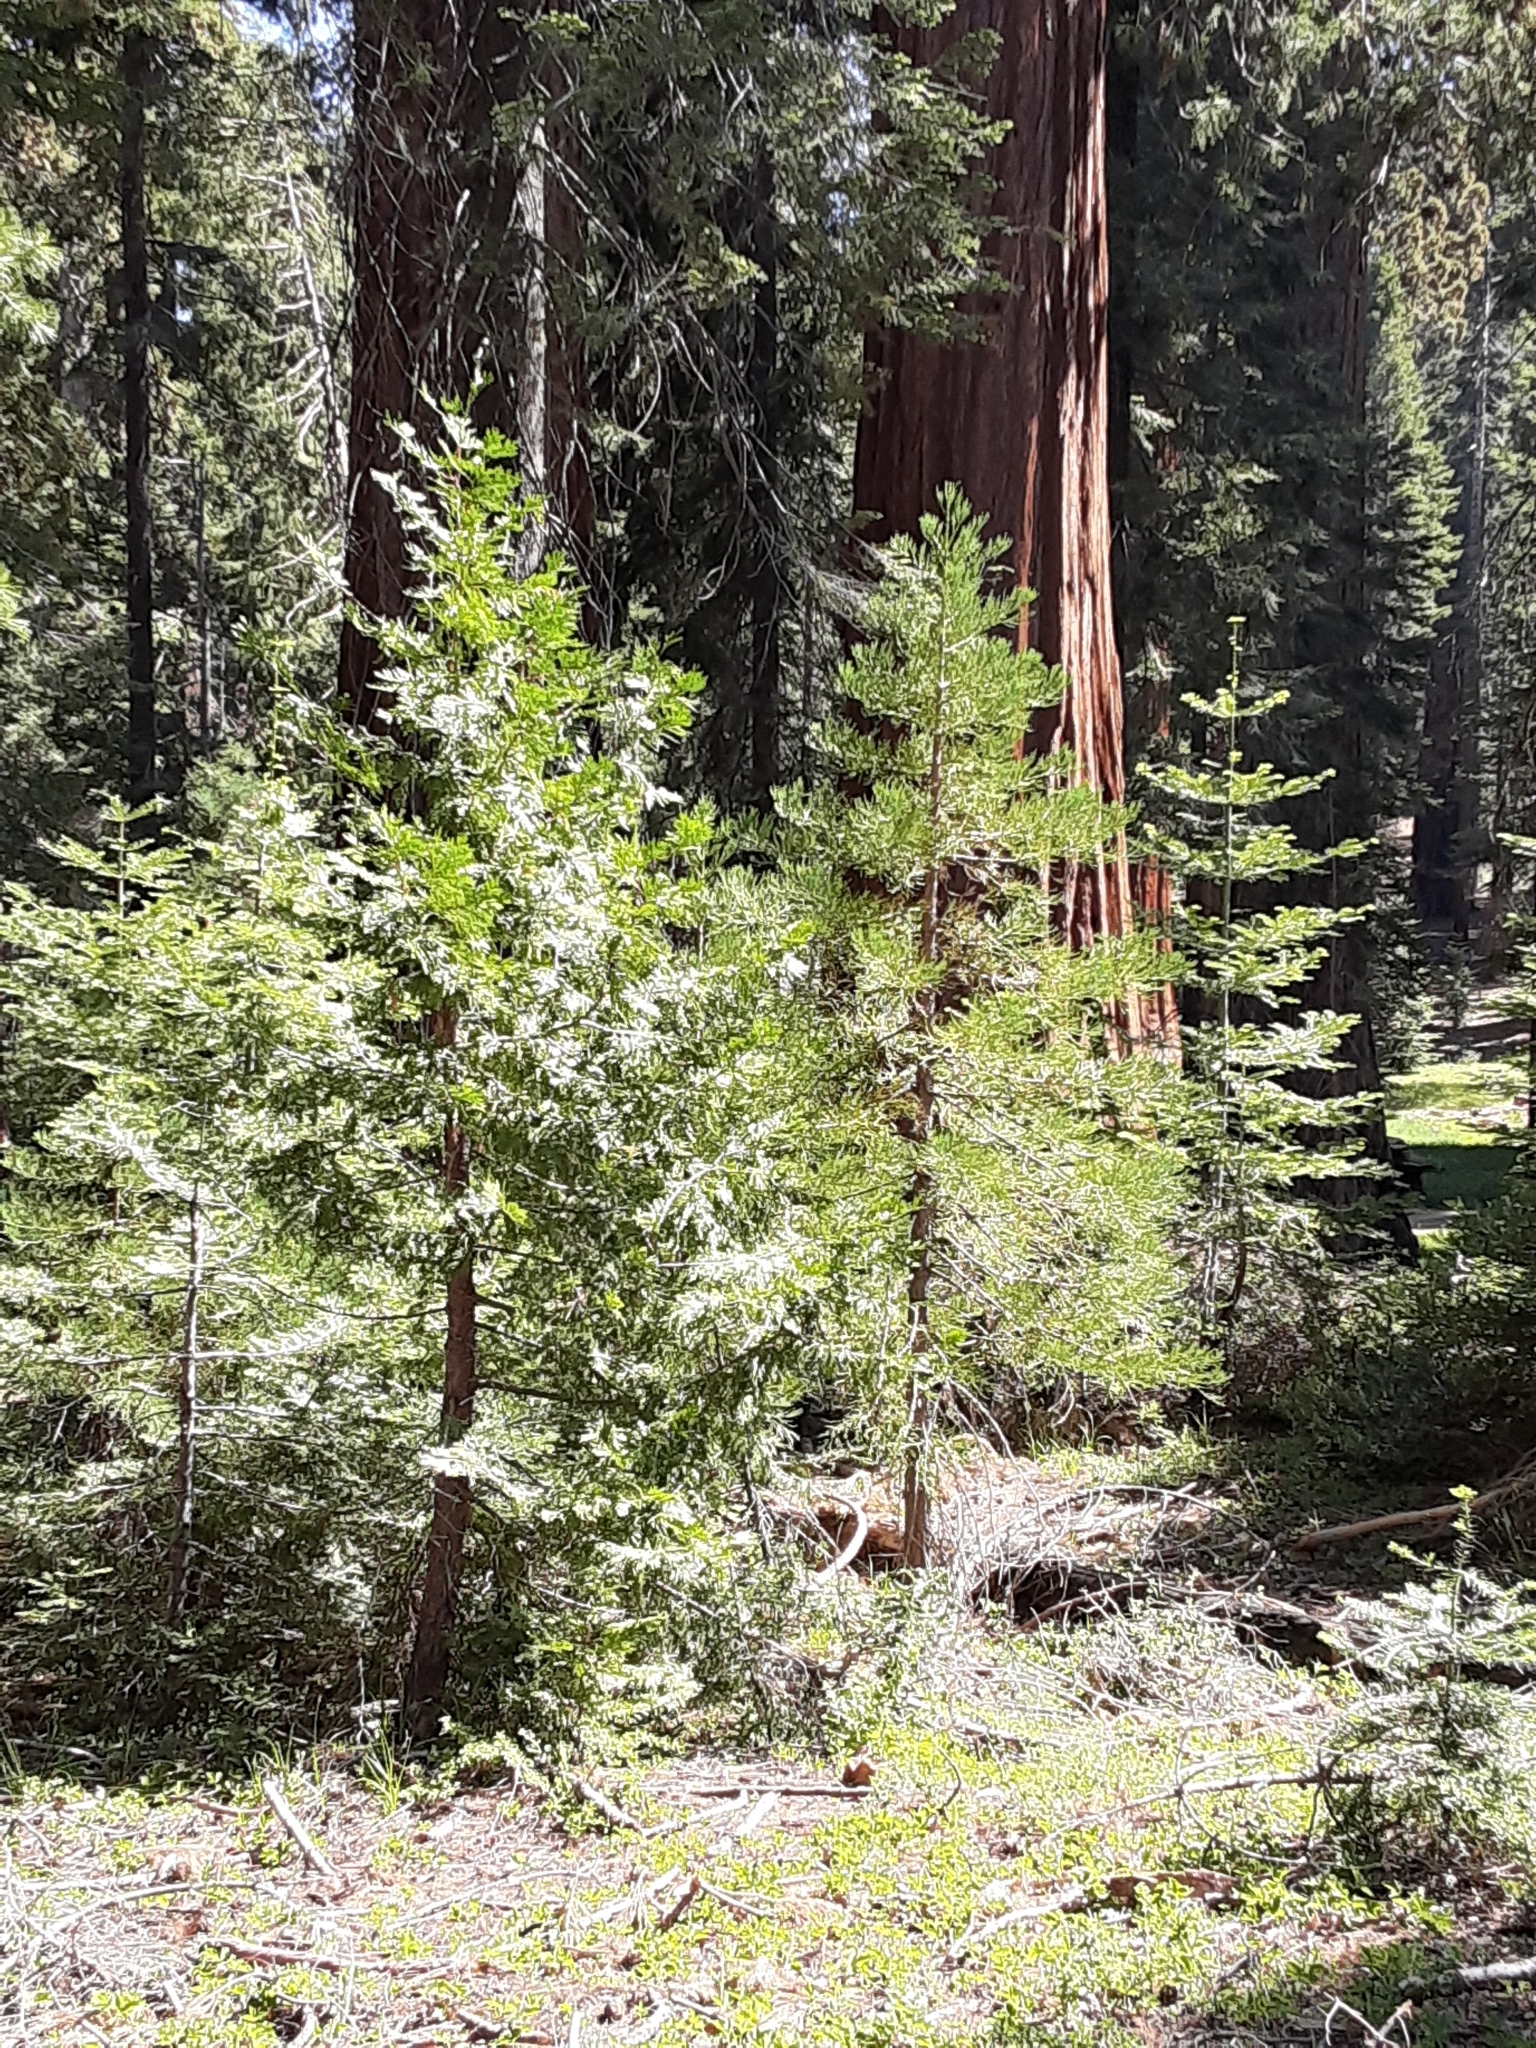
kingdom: Plantae
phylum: Tracheophyta
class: Pinopsida
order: Pinales
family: Cupressaceae
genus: Sequoiadendron
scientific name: Sequoiadendron giganteum
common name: Wellingtonia
